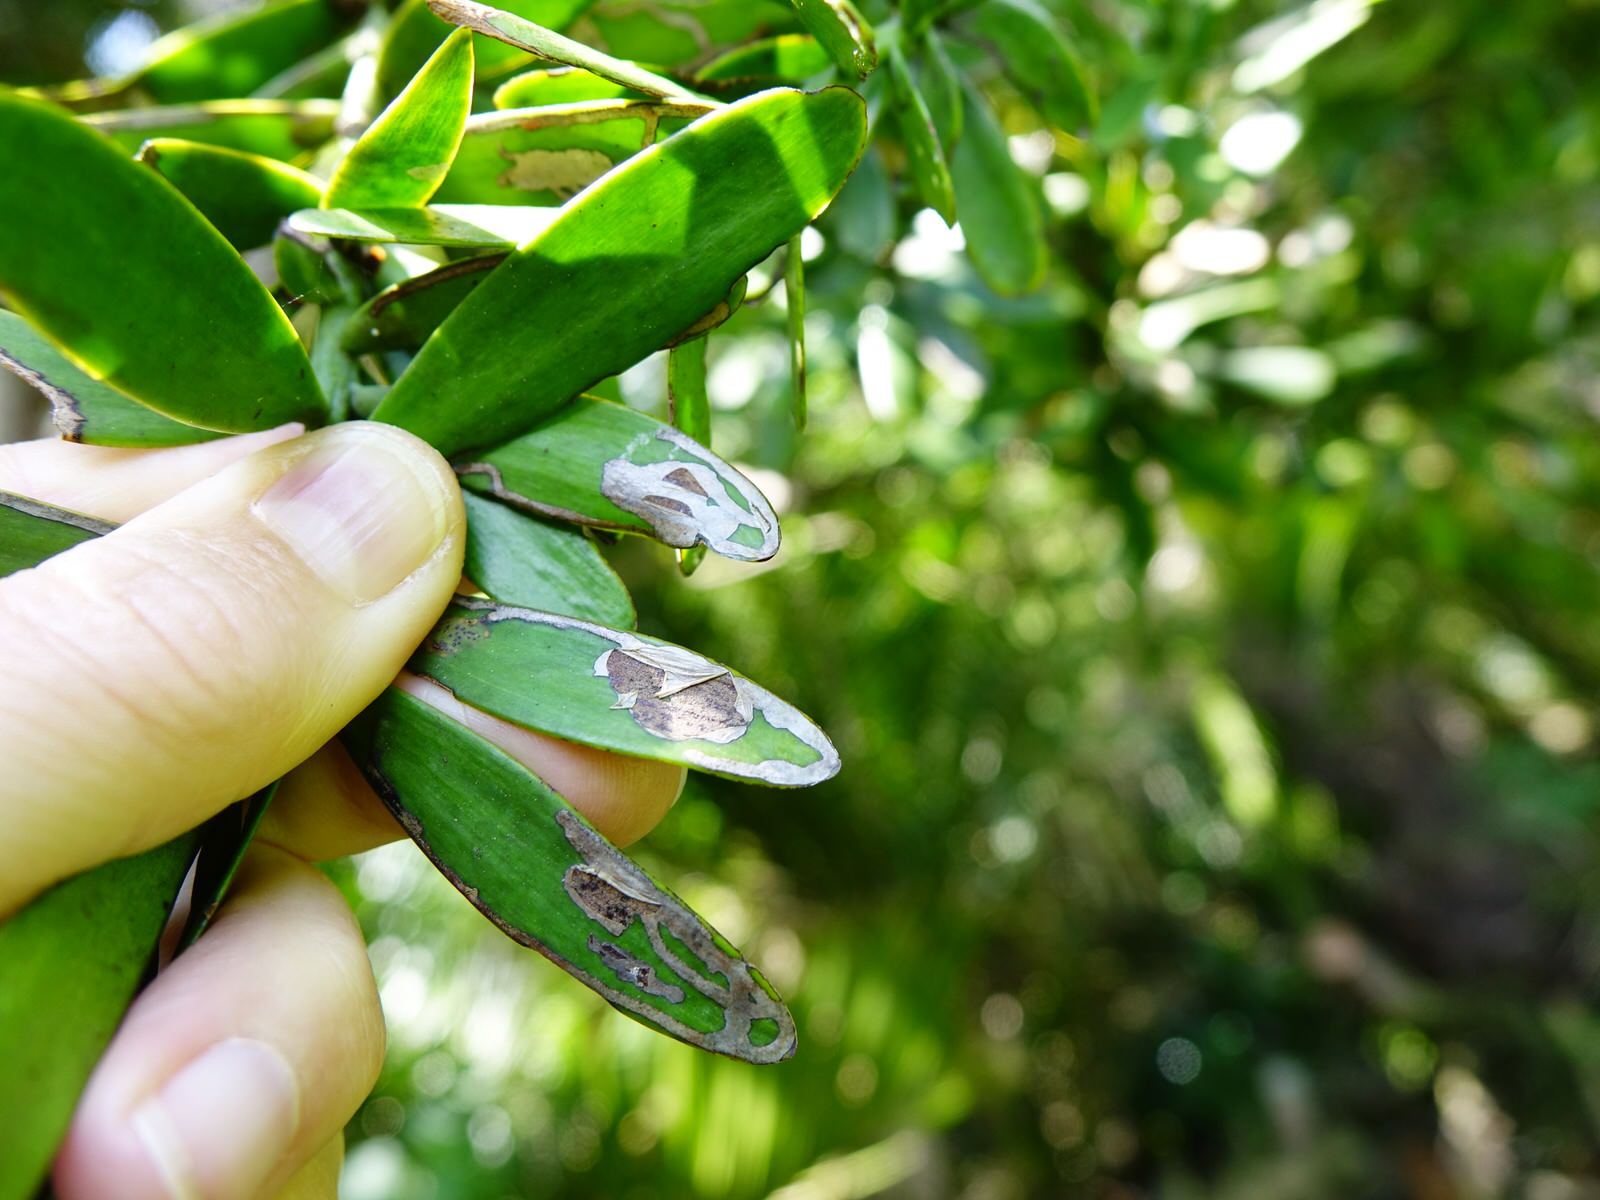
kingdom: Animalia
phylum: Arthropoda
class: Insecta
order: Lepidoptera
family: Gracillariidae
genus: Acrocercops
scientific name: Acrocercops leucotoma
